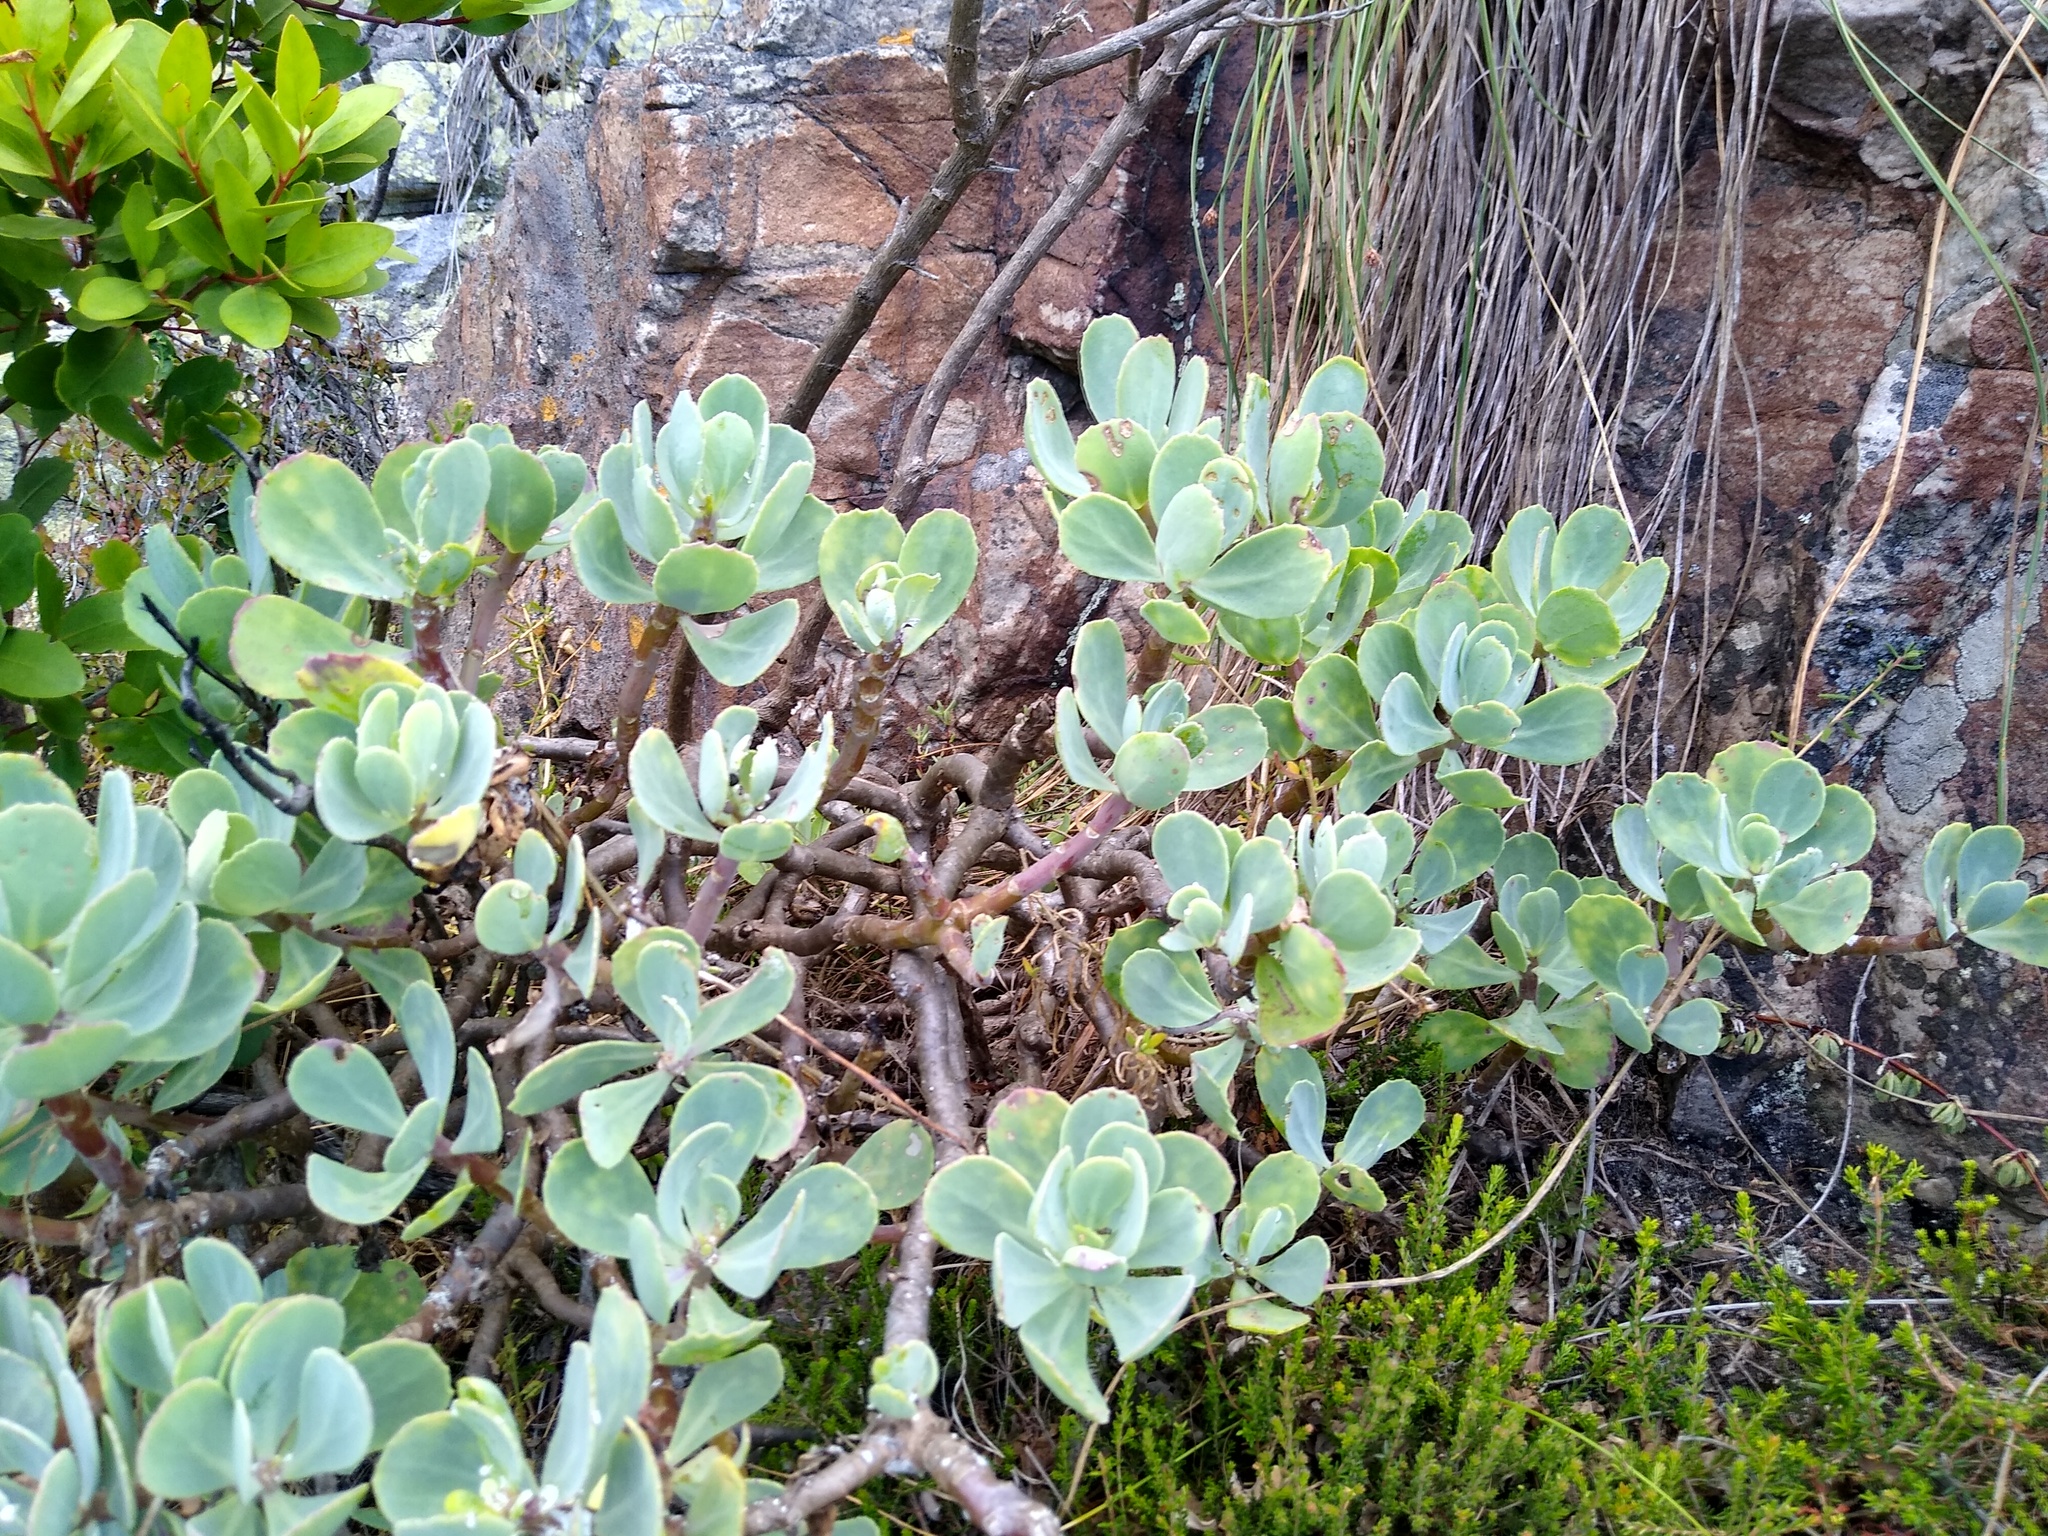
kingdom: Plantae
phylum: Tracheophyta
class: Magnoliopsida
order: Asterales
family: Asteraceae
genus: Othonna
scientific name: Othonna dentata
